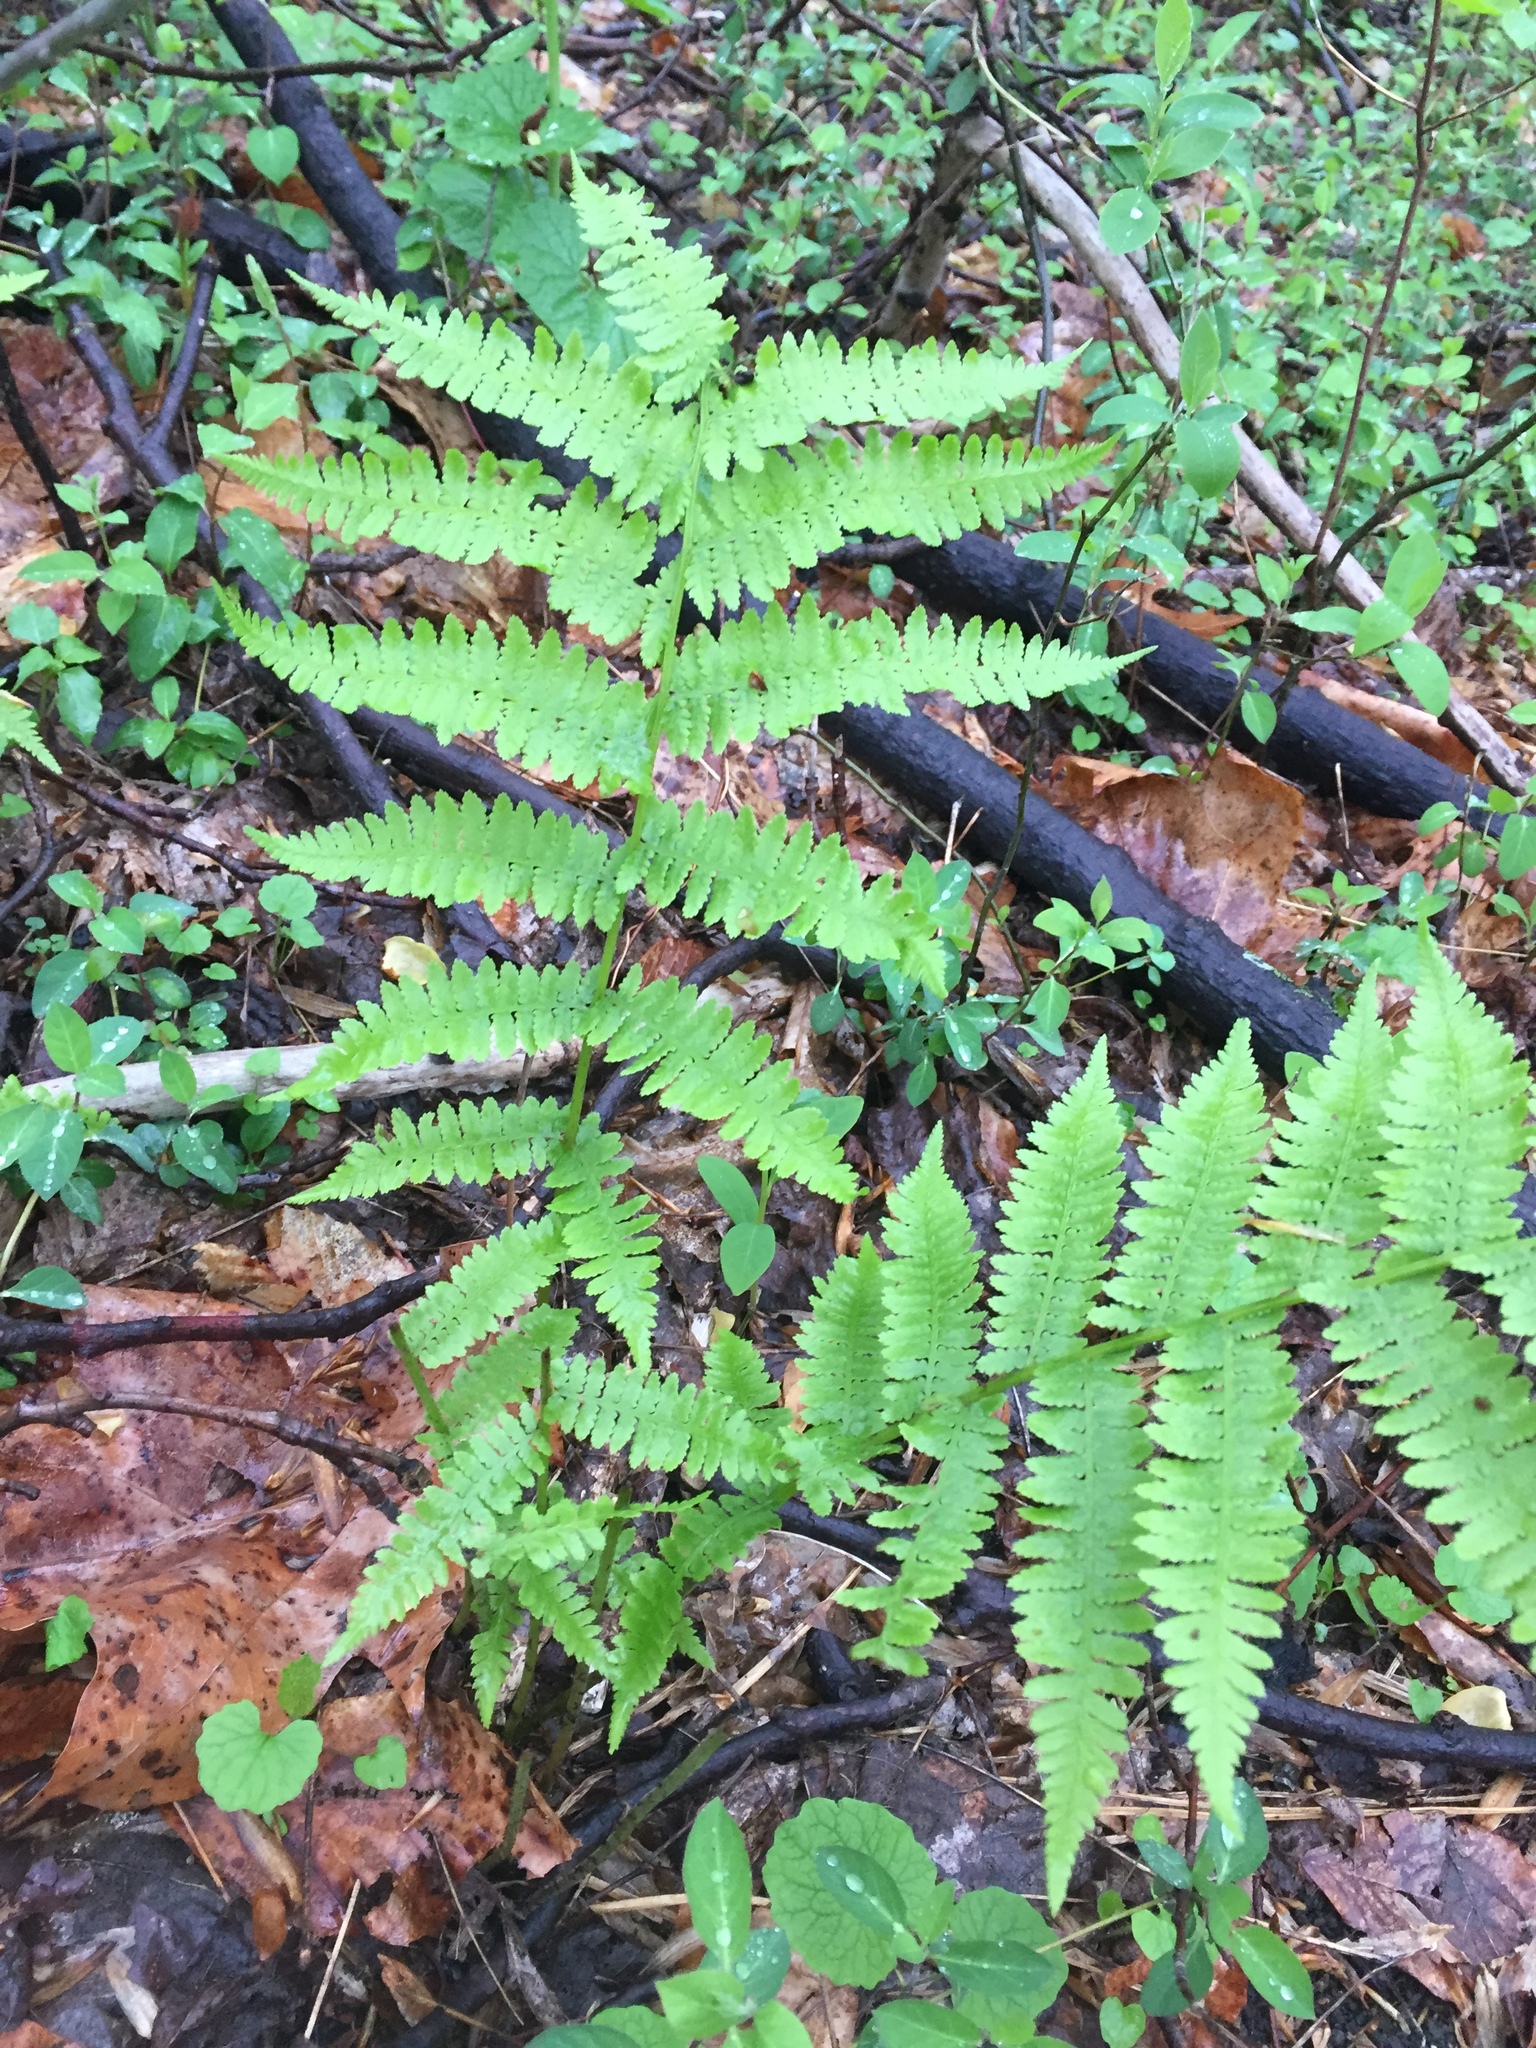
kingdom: Plantae
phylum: Tracheophyta
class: Polypodiopsida
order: Polypodiales
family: Athyriaceae
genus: Athyrium
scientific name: Athyrium asplenioides
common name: Southern lady fern
